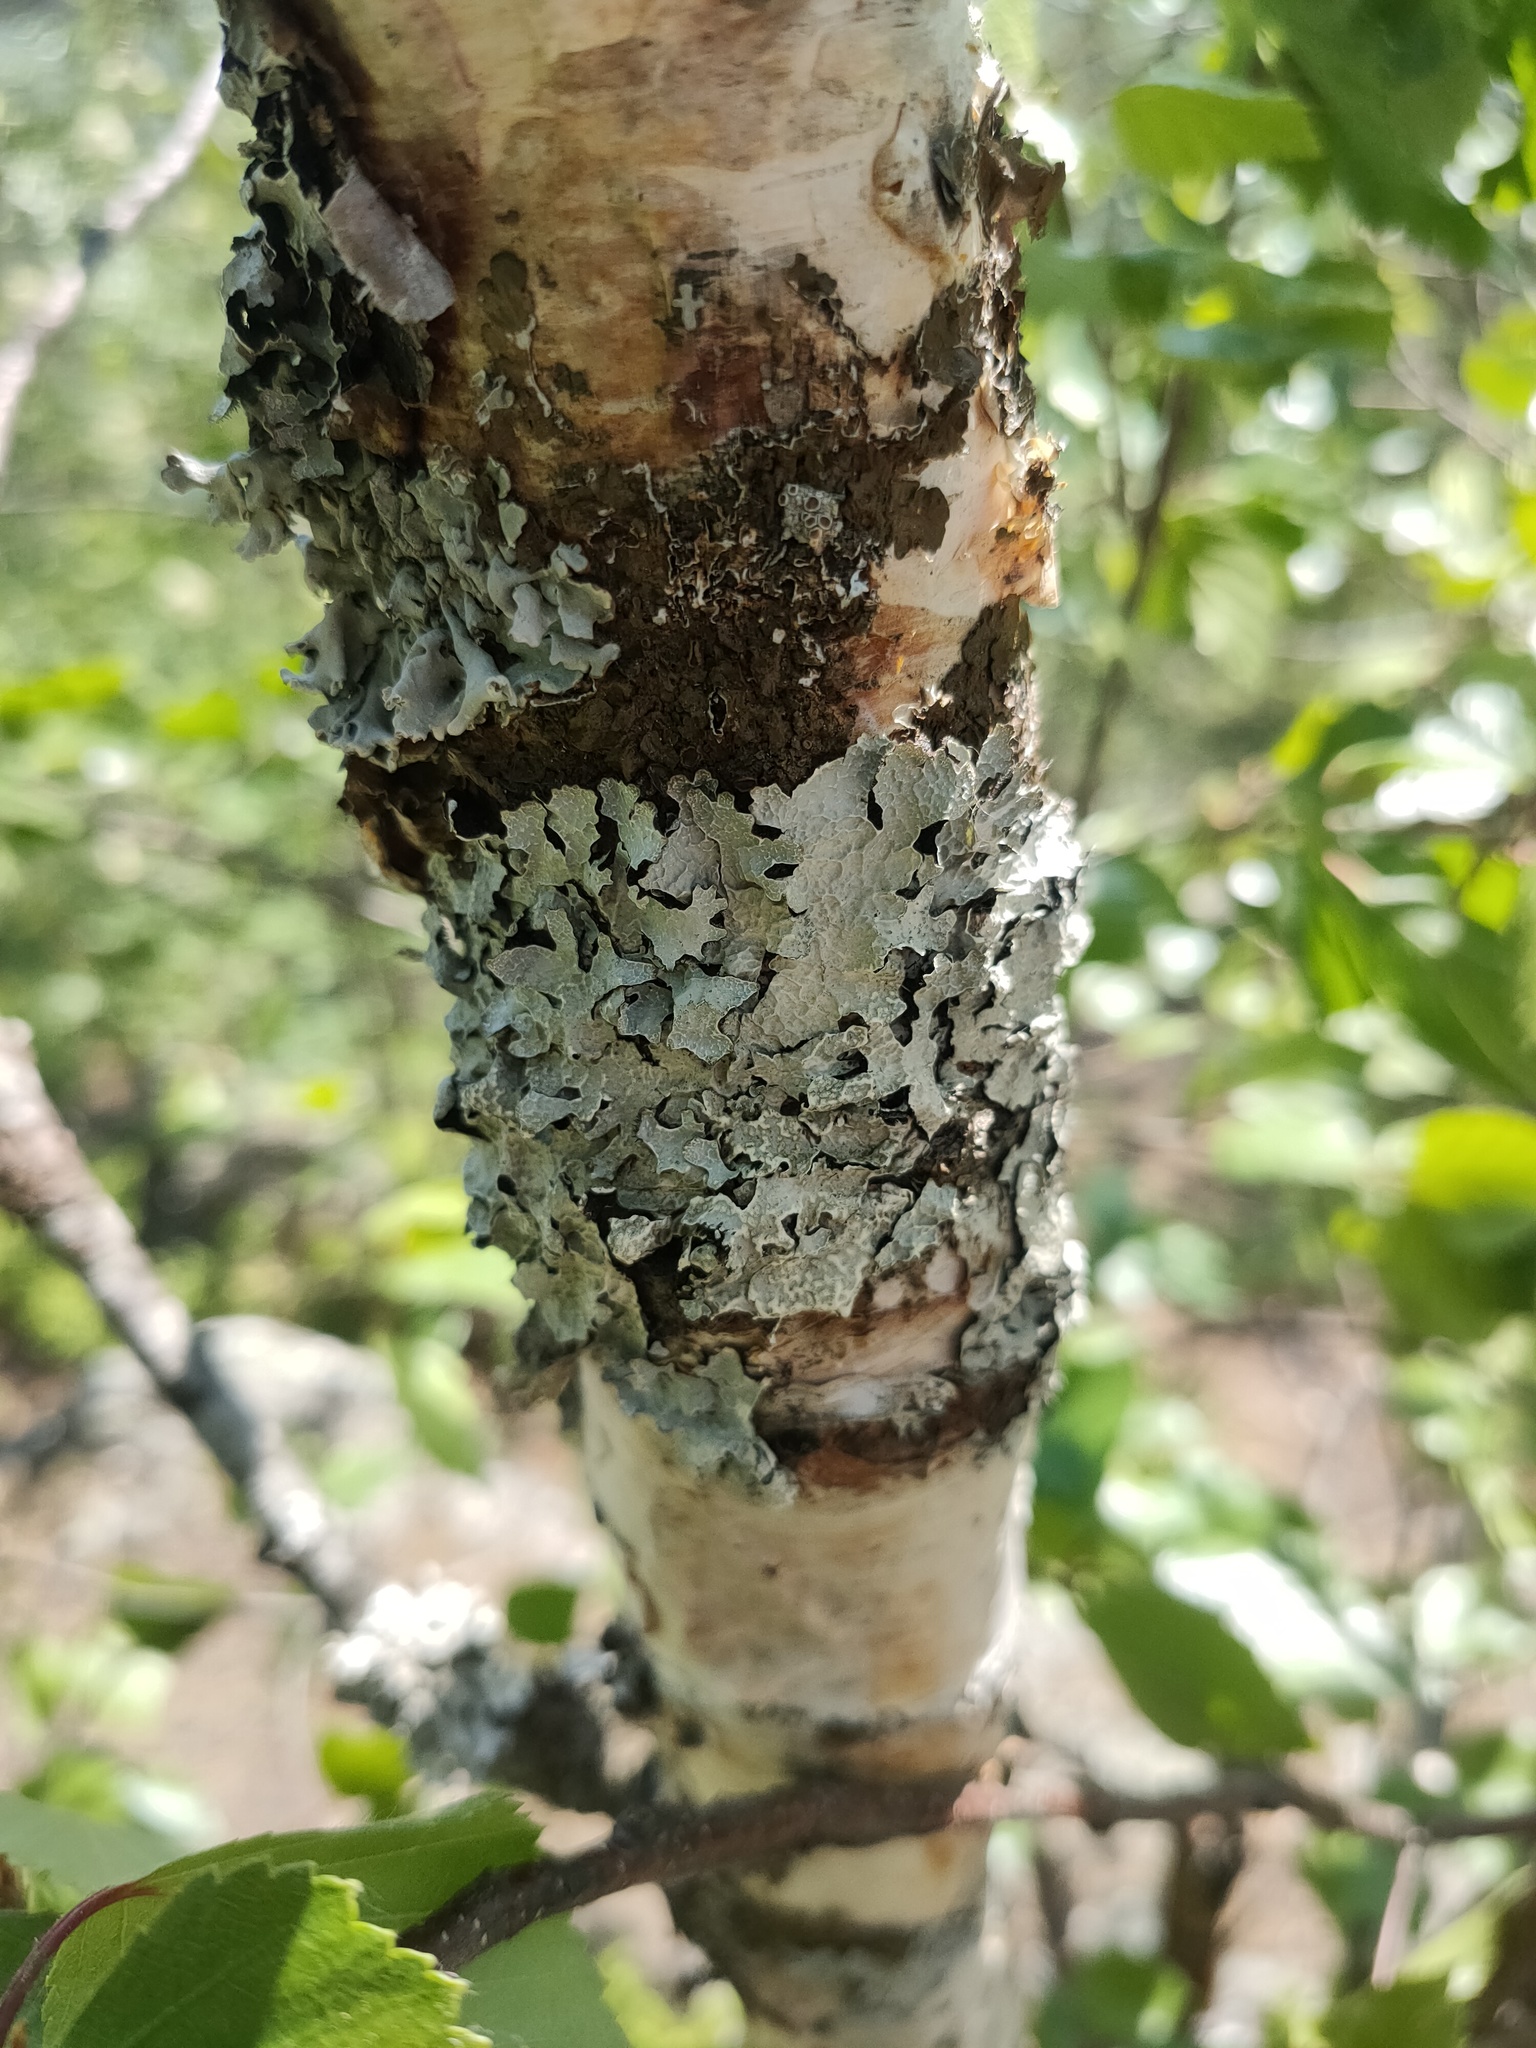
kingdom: Fungi
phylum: Ascomycota
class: Lecanoromycetes
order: Lecanorales
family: Parmeliaceae
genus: Parmelia
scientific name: Parmelia sulcata
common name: Netted shield lichen
